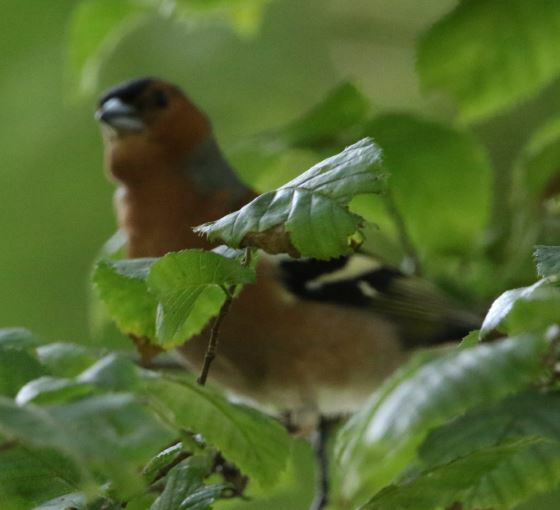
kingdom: Animalia
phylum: Chordata
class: Aves
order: Passeriformes
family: Fringillidae
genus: Fringilla
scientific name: Fringilla coelebs
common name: Common chaffinch
